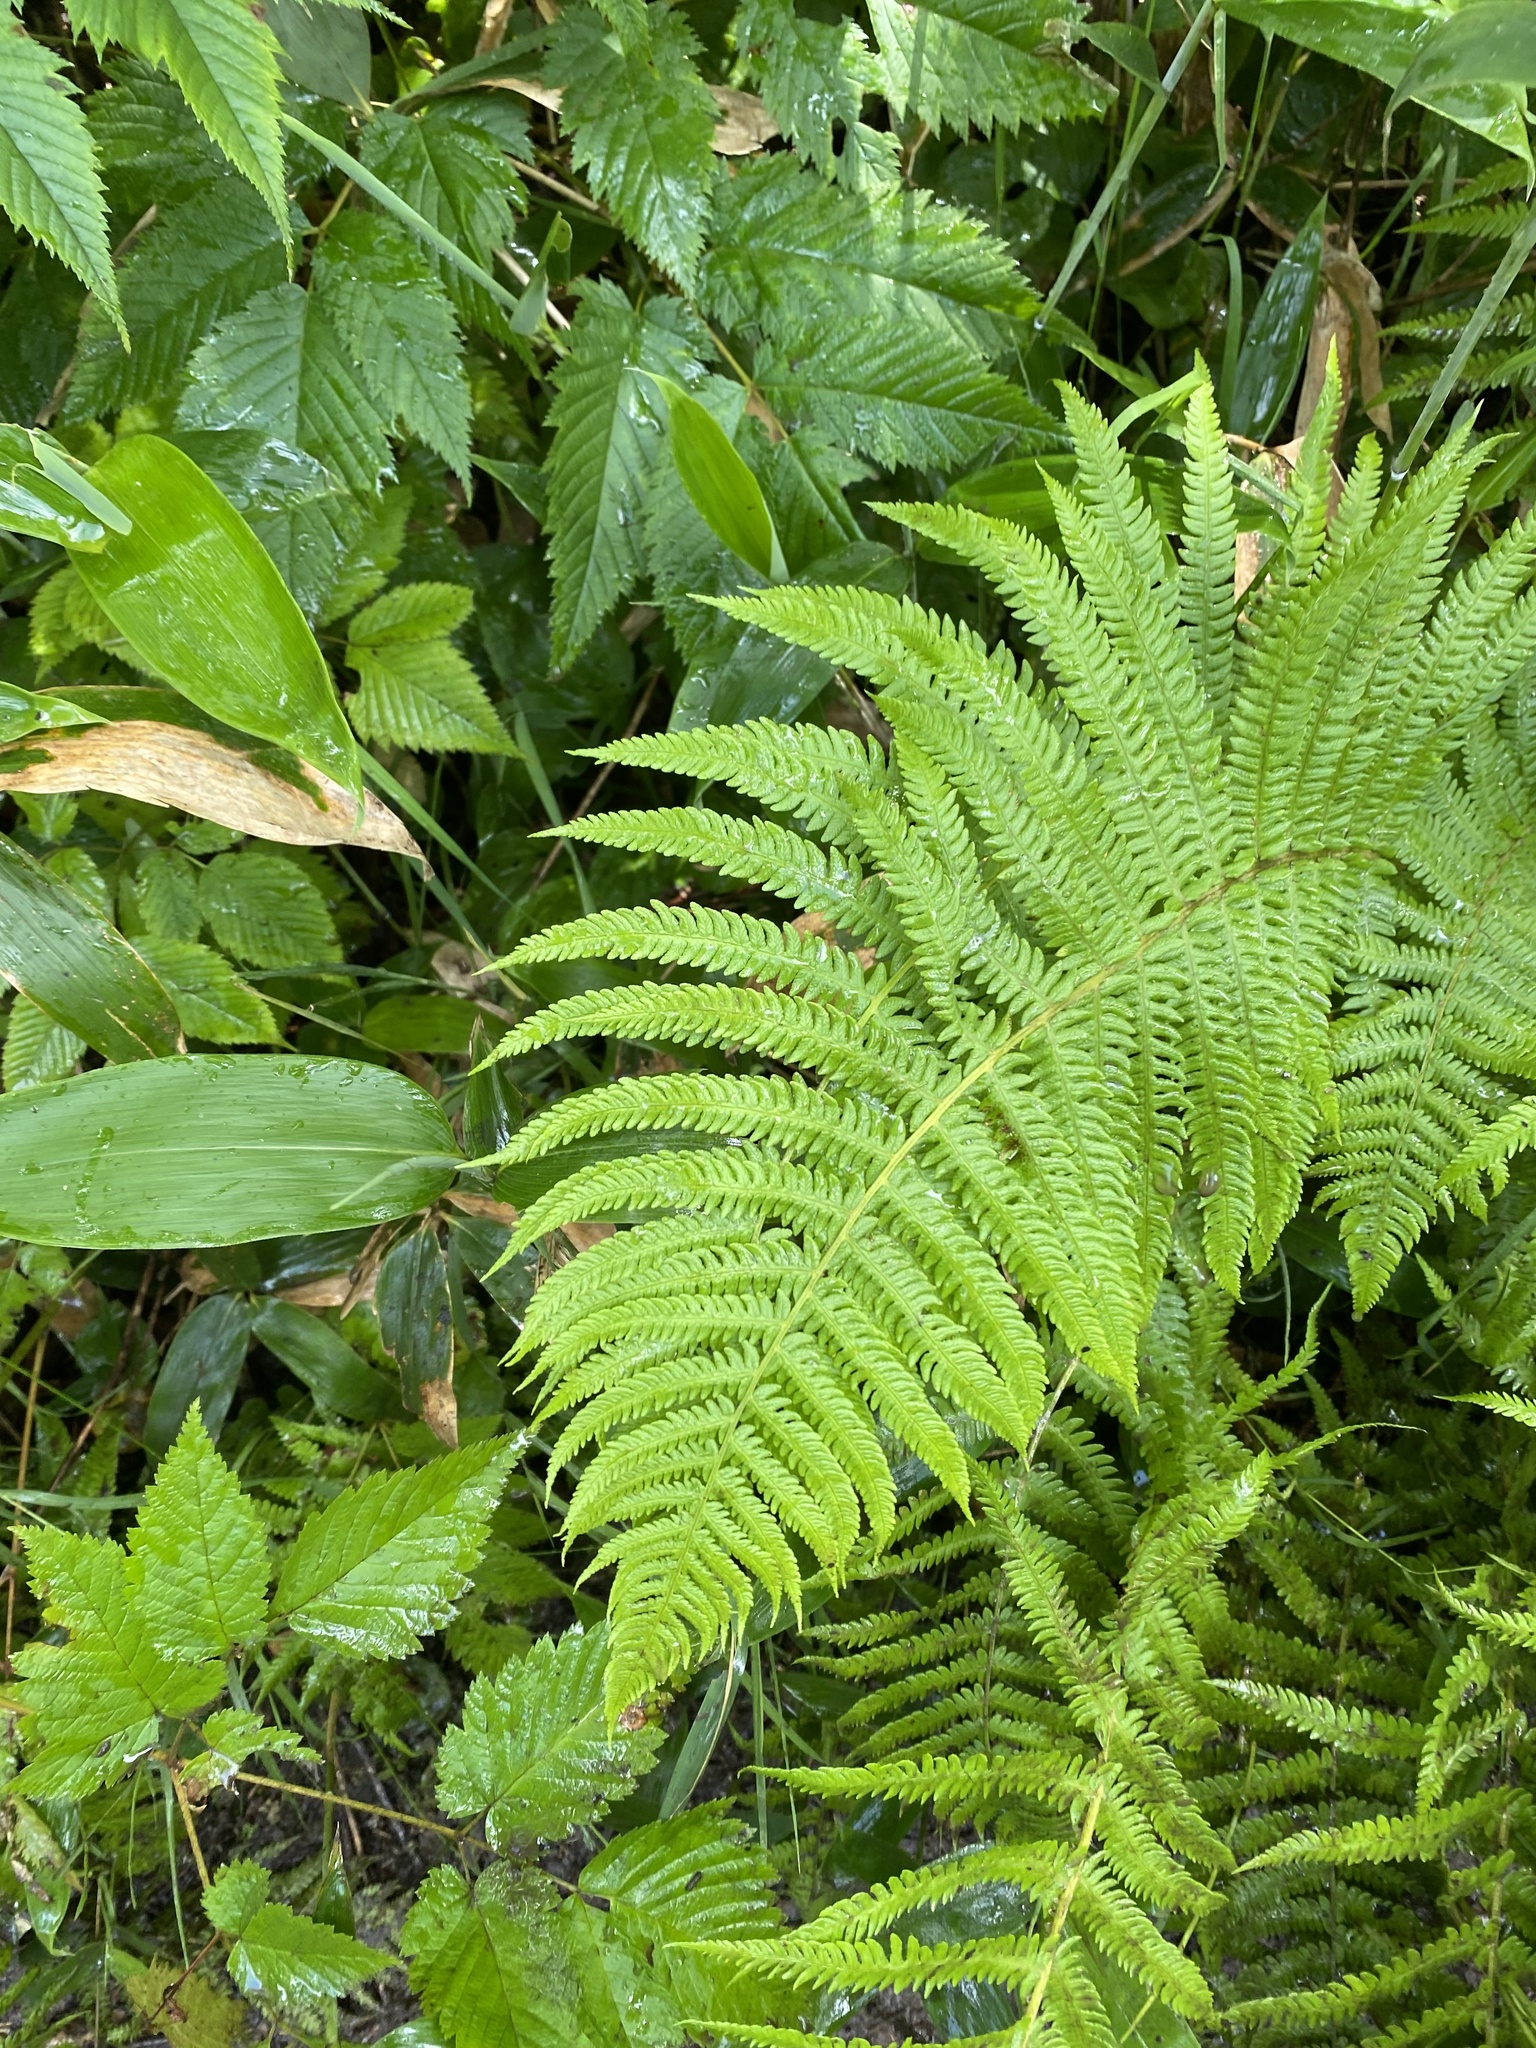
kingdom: Plantae
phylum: Tracheophyta
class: Polypodiopsida
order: Polypodiales
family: Thelypteridaceae
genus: Oreopteris
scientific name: Oreopteris quelpartensis
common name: Mountain fern
